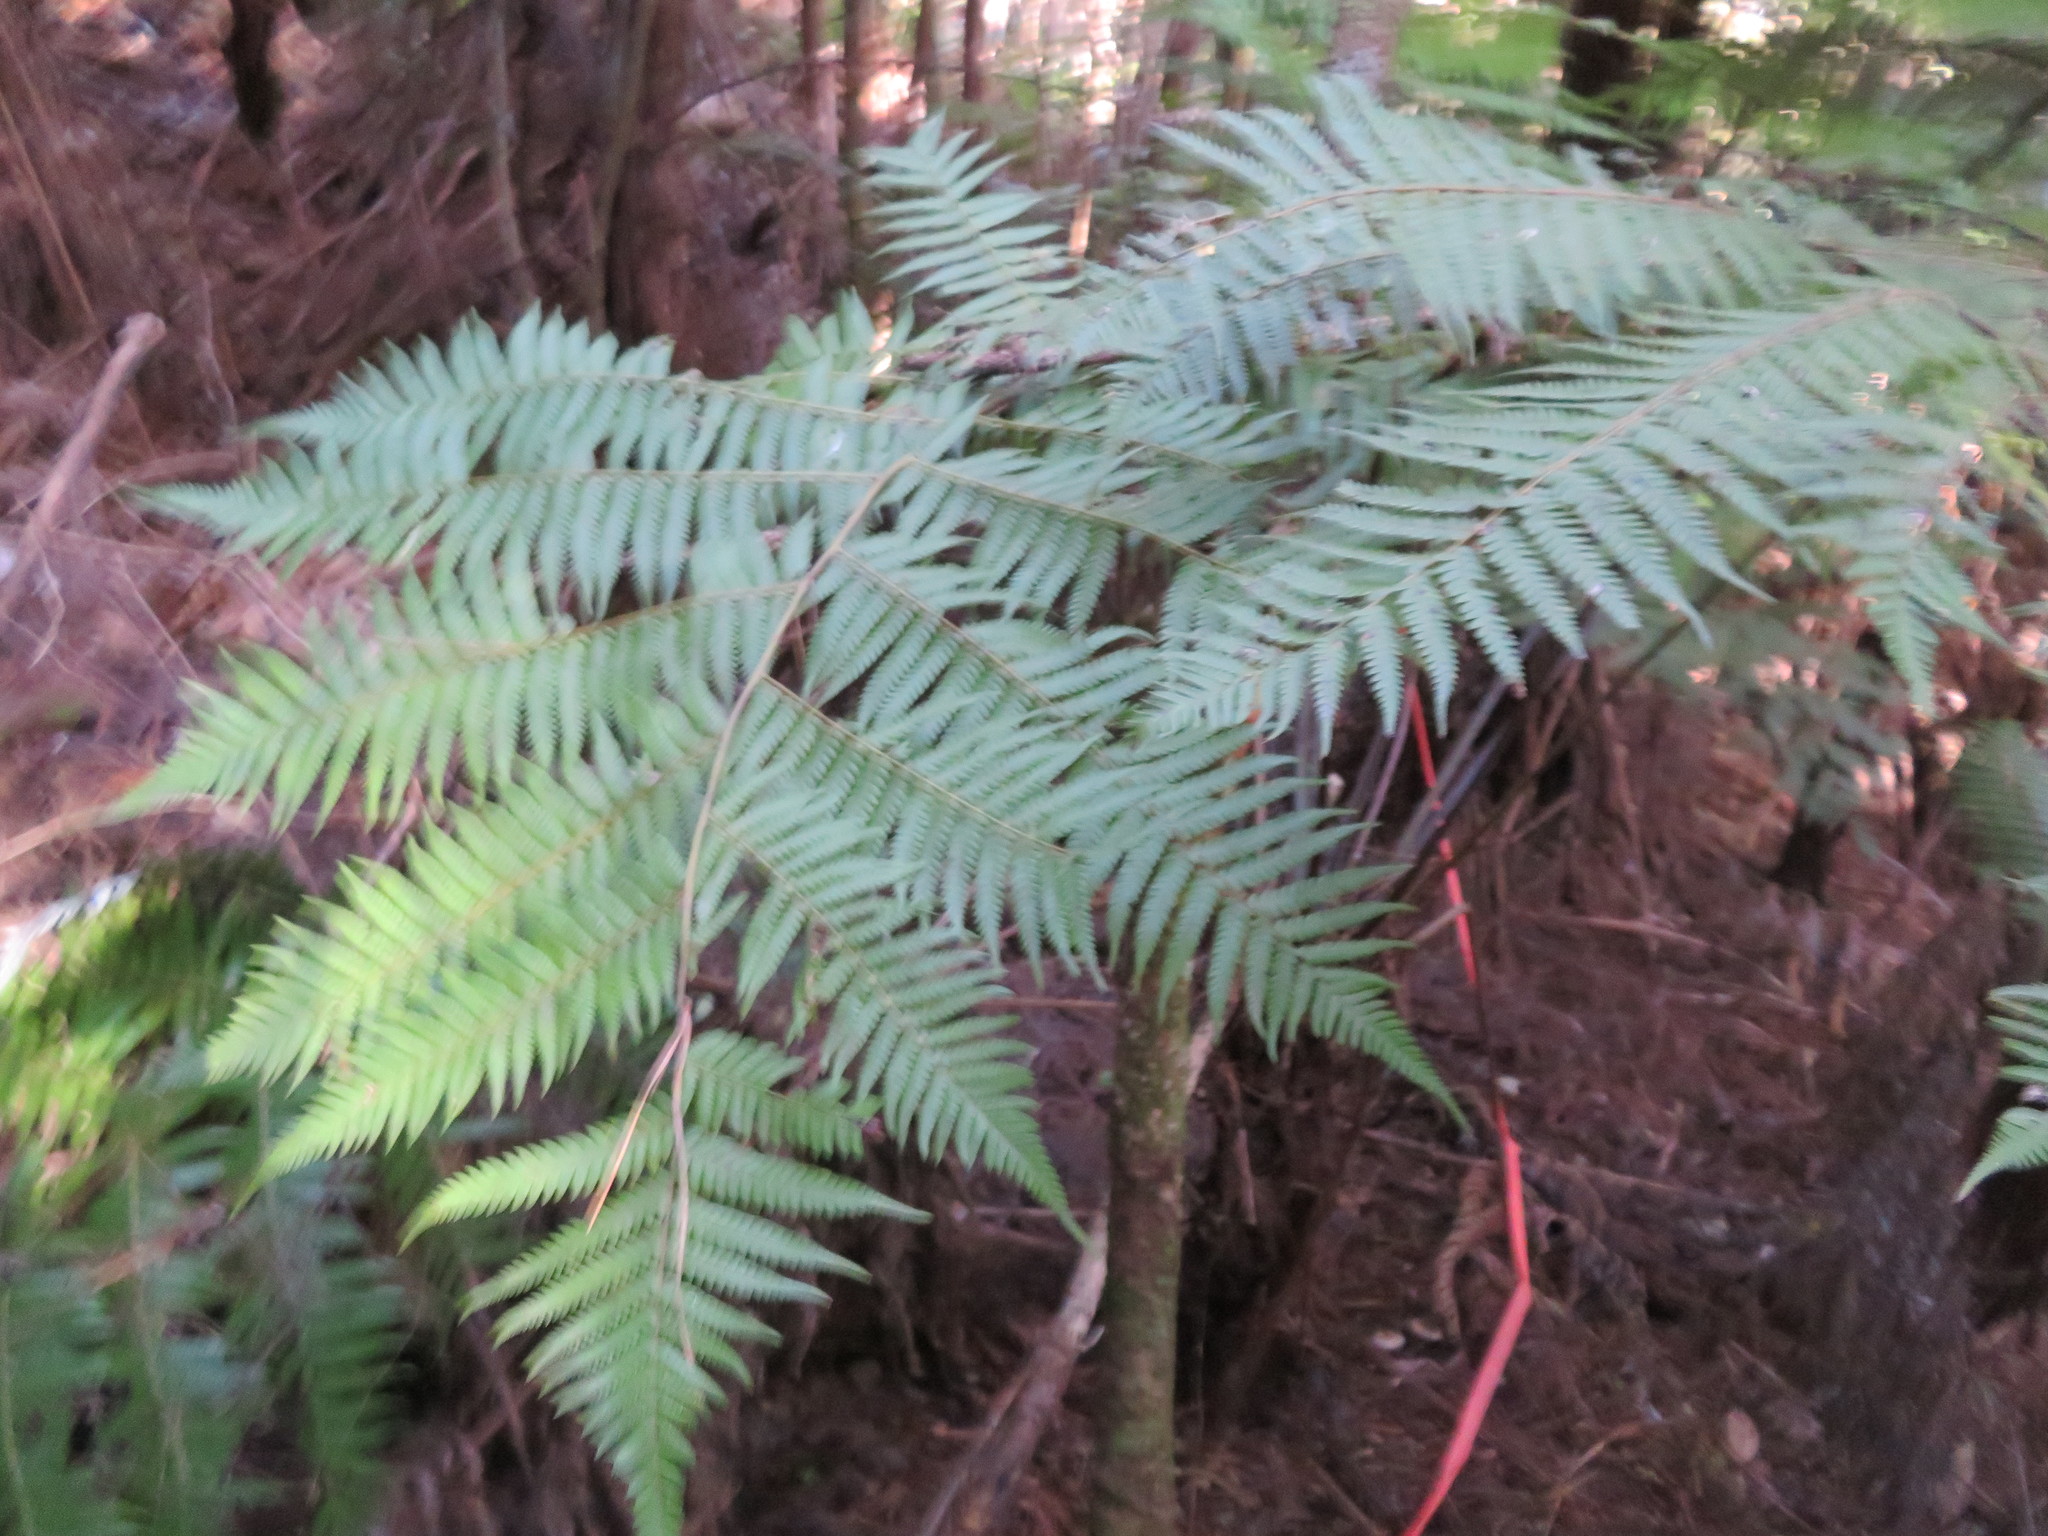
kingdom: Plantae
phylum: Tracheophyta
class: Polypodiopsida
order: Cyatheales
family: Cyatheaceae
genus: Alsophila
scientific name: Alsophila dealbata
